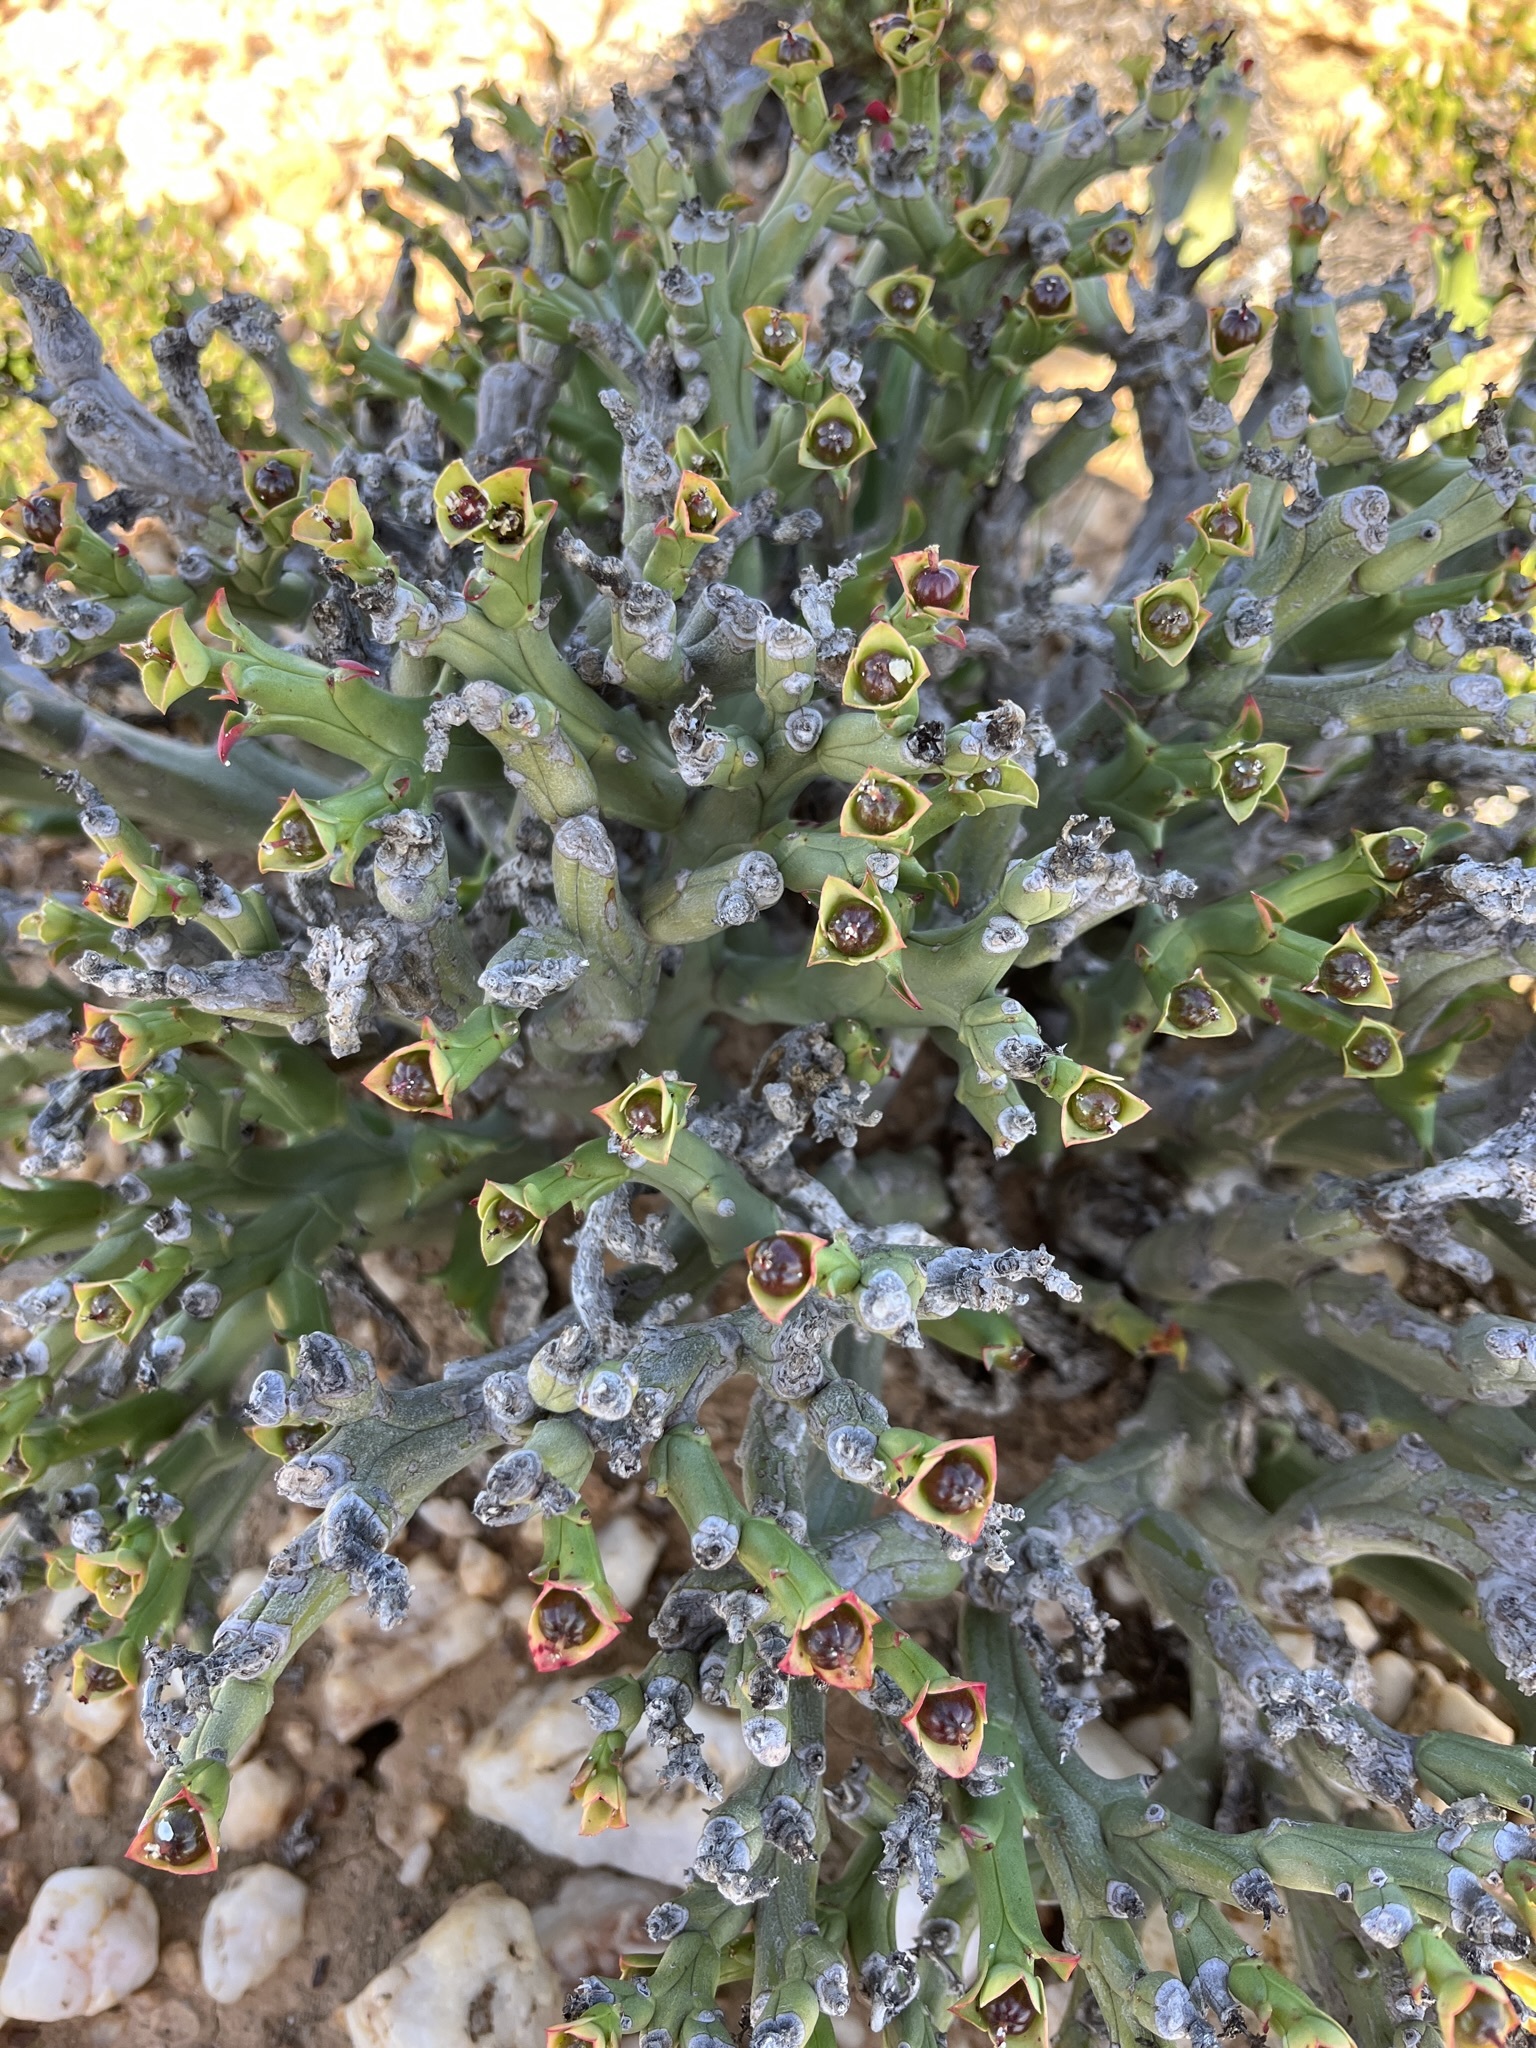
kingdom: Plantae
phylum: Tracheophyta
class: Magnoliopsida
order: Malpighiales
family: Euphorbiaceae
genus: Euphorbia
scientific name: Euphorbia hamata
